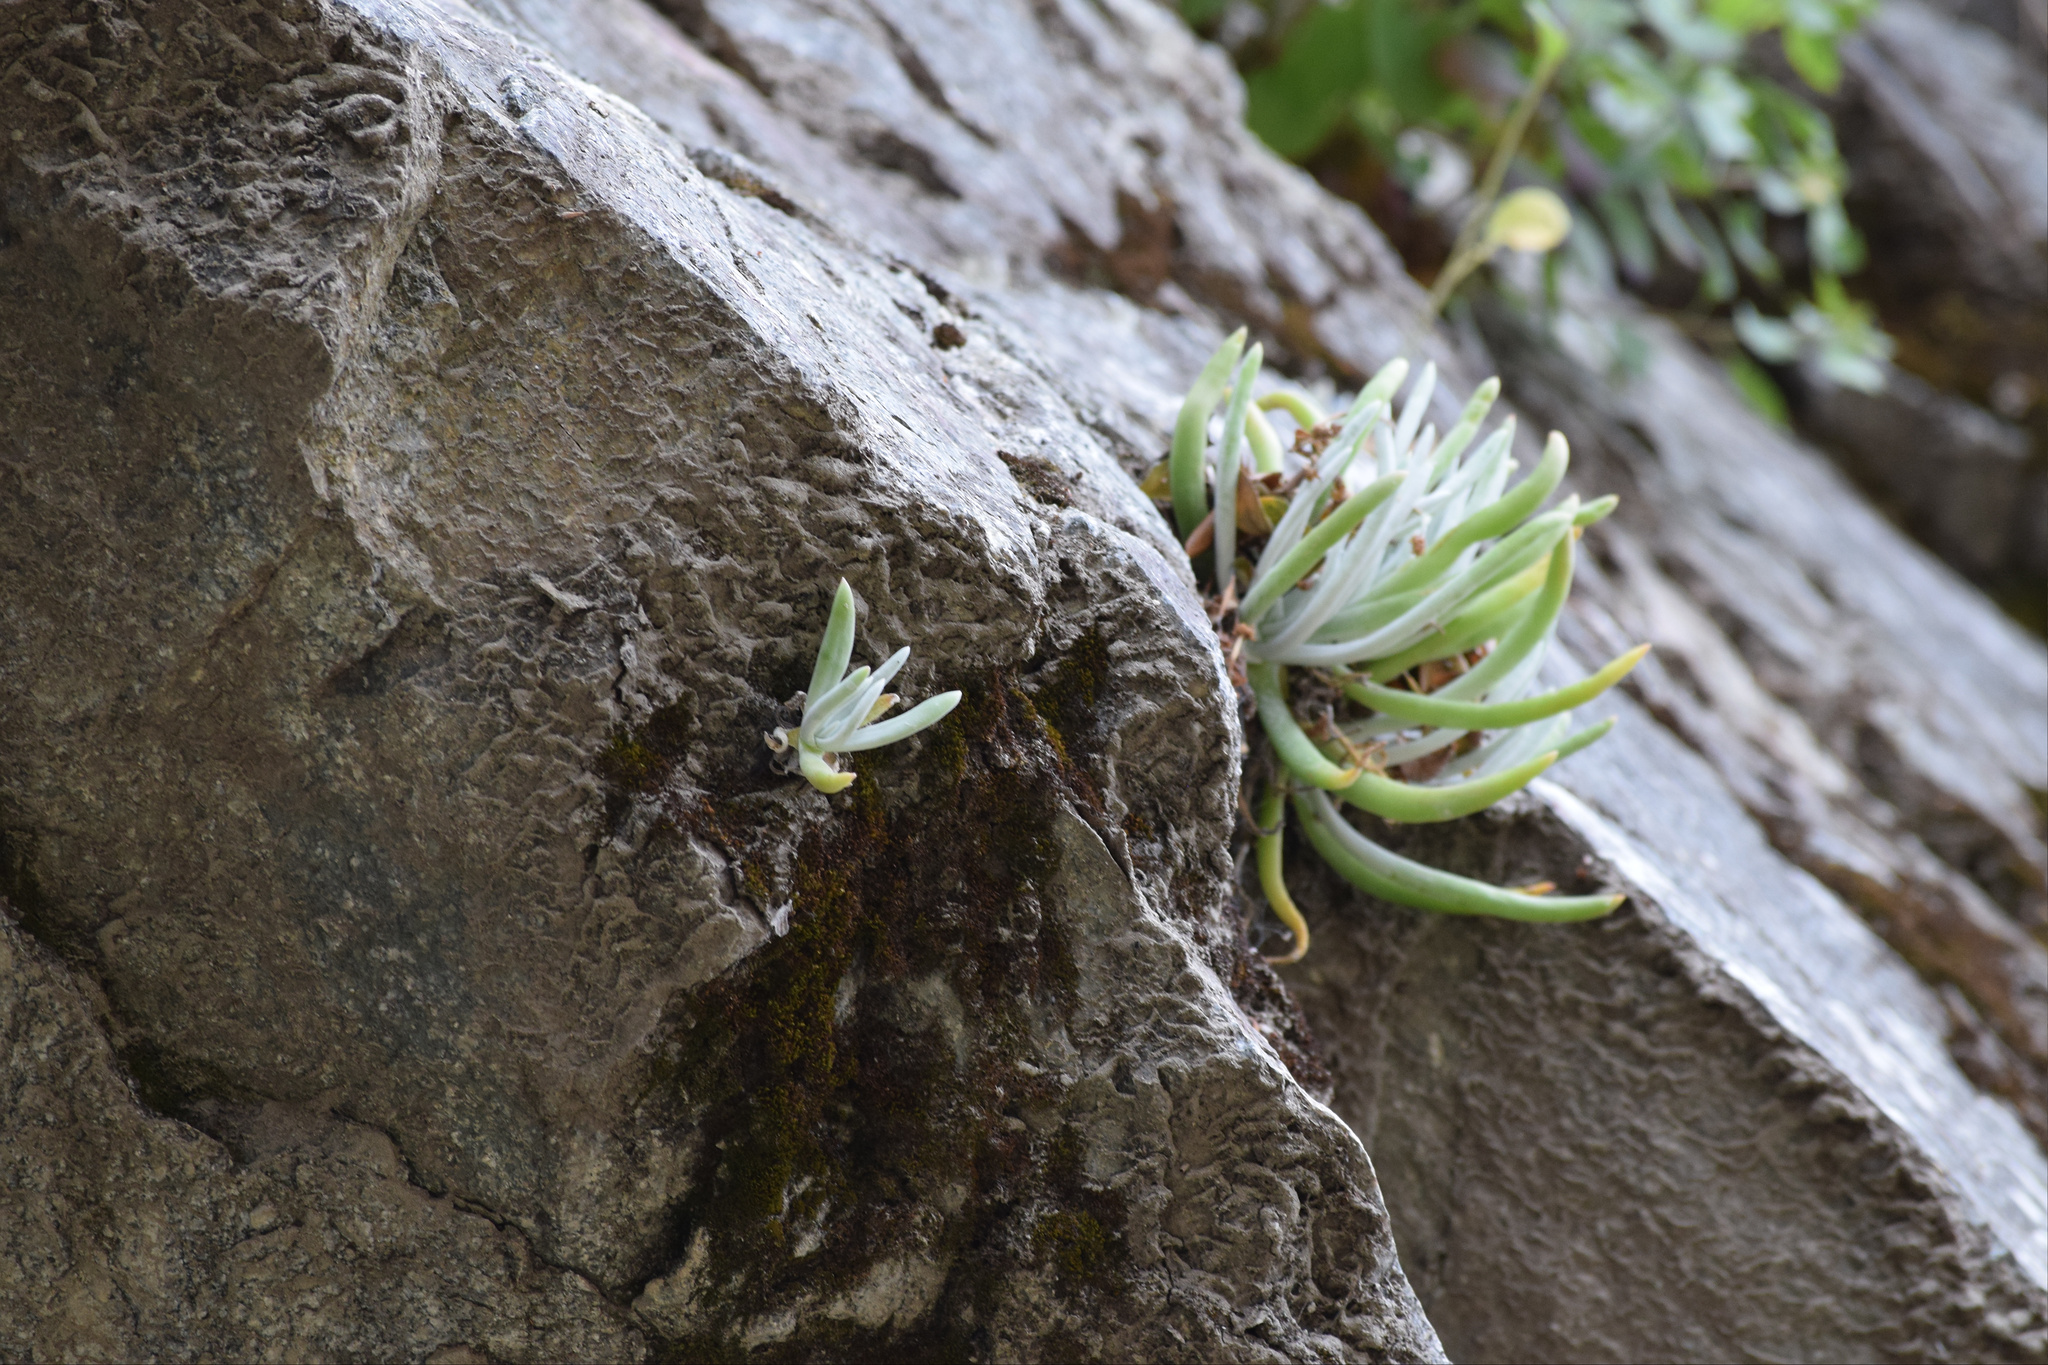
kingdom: Plantae
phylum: Tracheophyta
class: Magnoliopsida
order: Saxifragales
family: Crassulaceae
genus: Dudleya
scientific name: Dudleya densiflora
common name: San gabriel mountains dudleya
